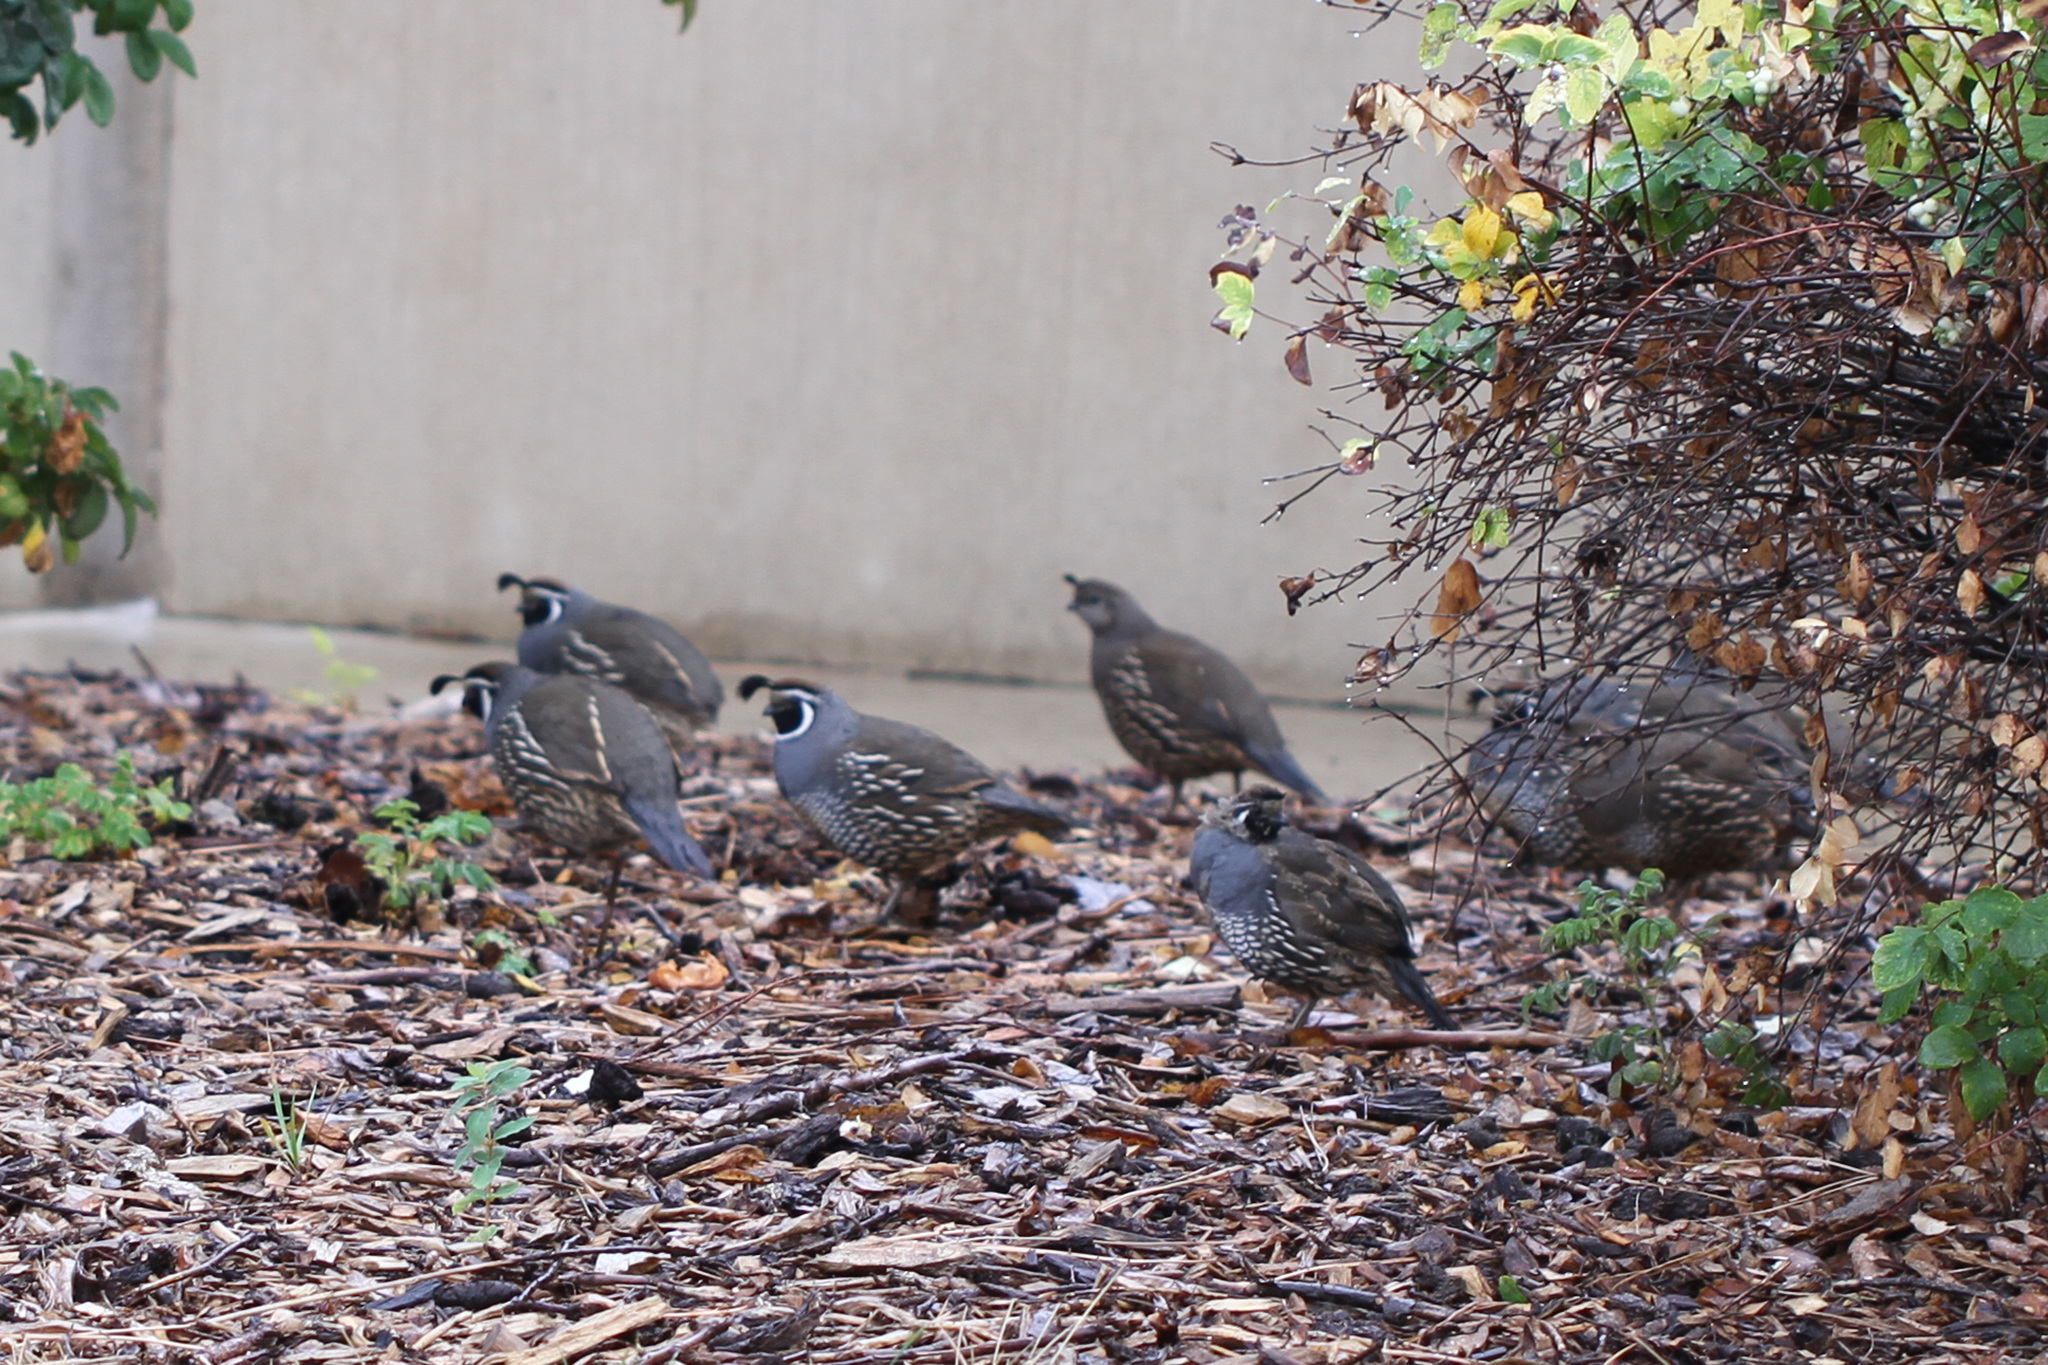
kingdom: Animalia
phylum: Chordata
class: Aves
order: Galliformes
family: Odontophoridae
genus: Callipepla
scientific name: Callipepla californica
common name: California quail
